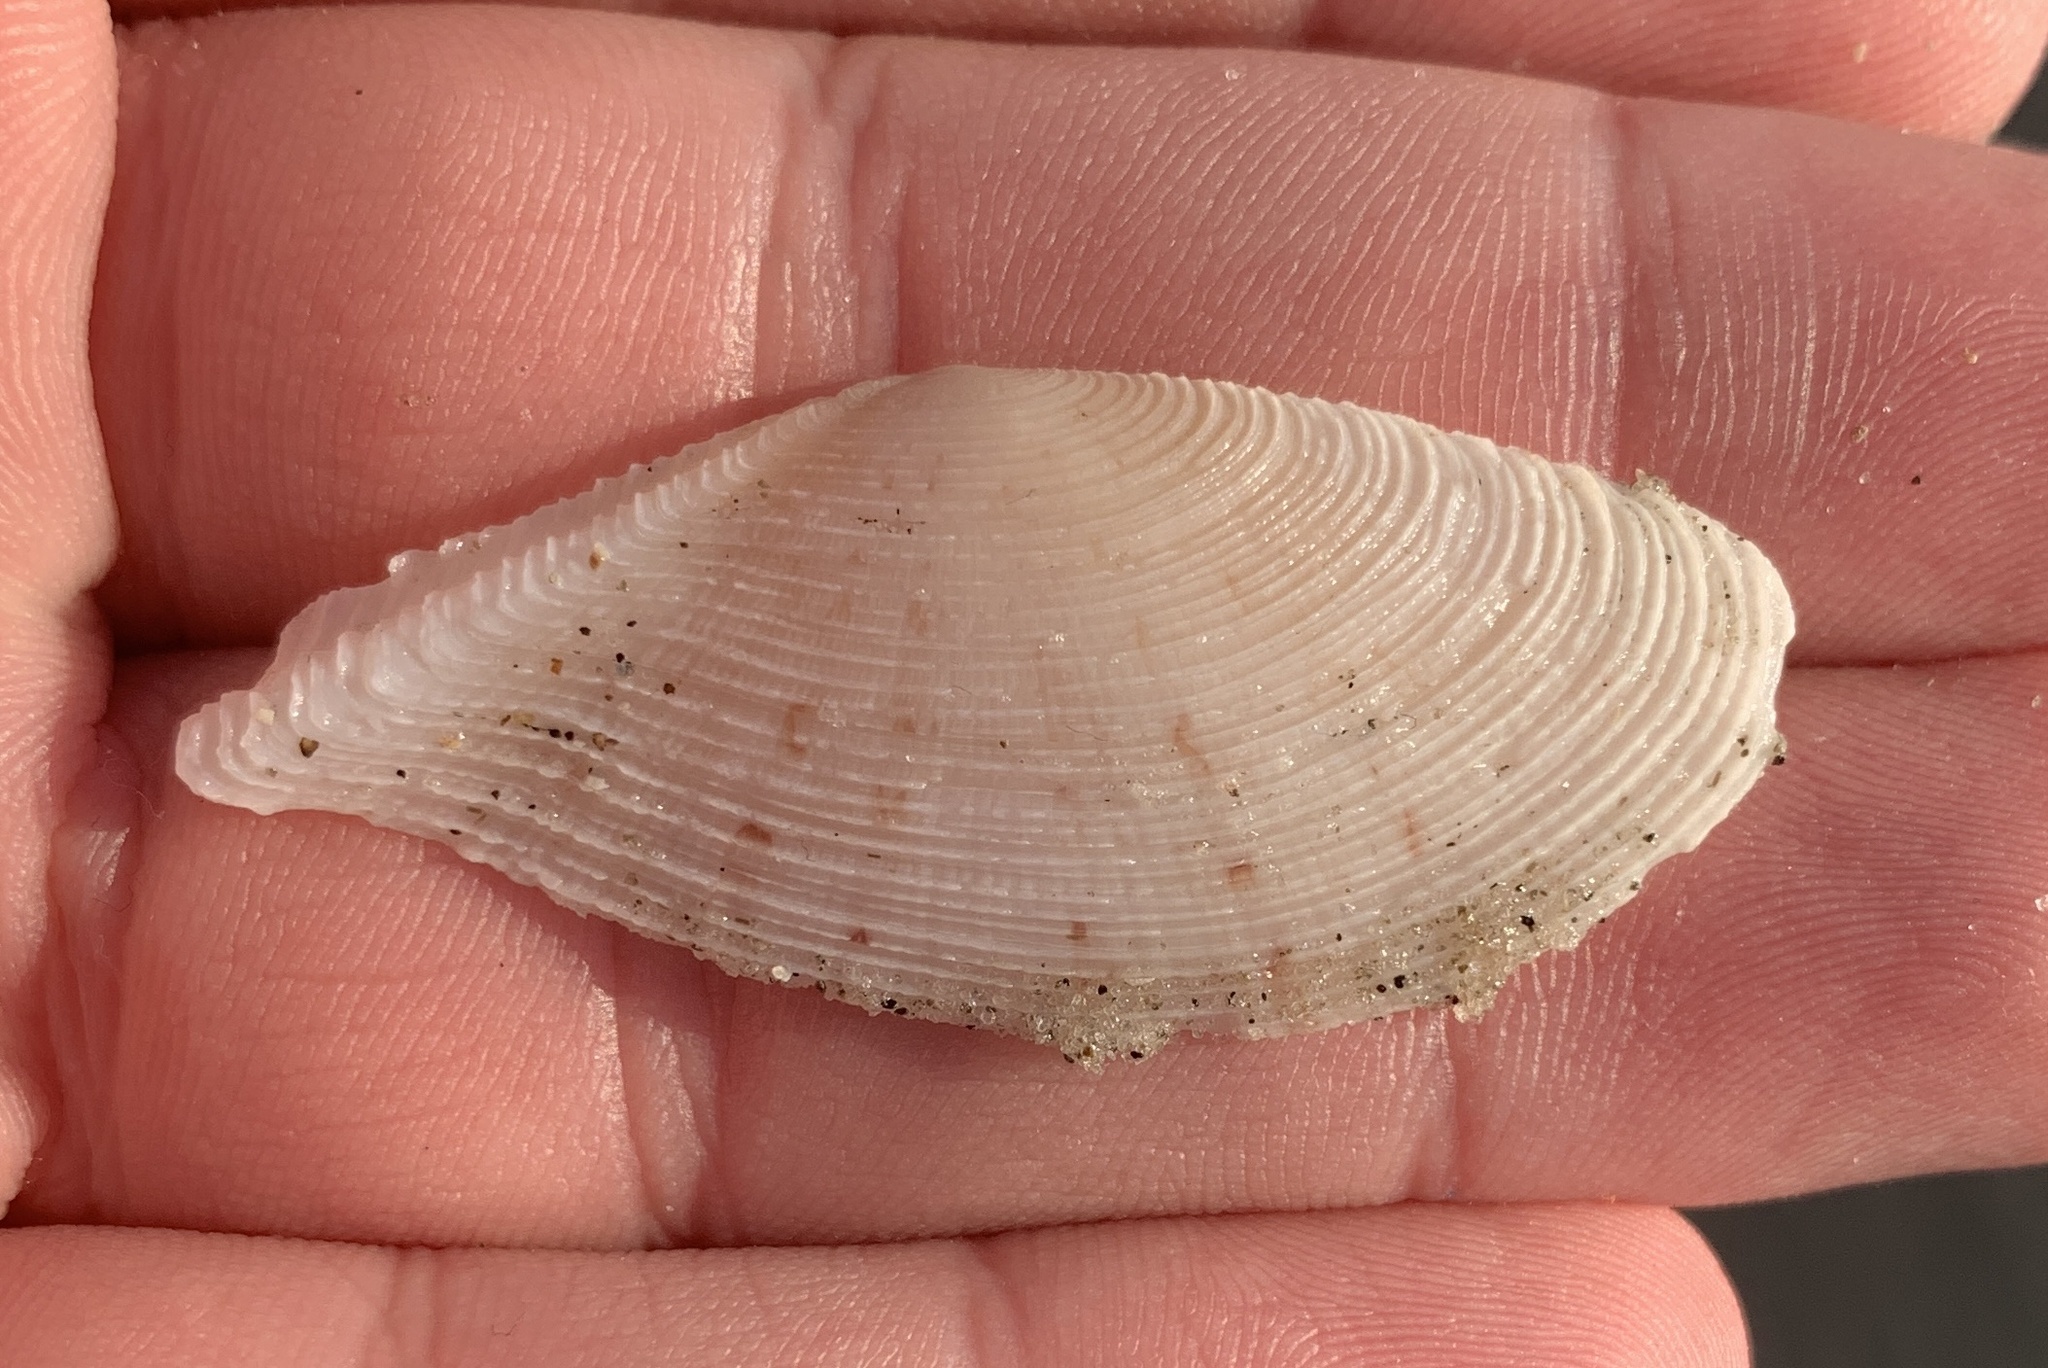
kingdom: Animalia
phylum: Mollusca
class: Bivalvia
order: Cardiida
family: Tellinidae
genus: Tellinella
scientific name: Tellinella mexicana
